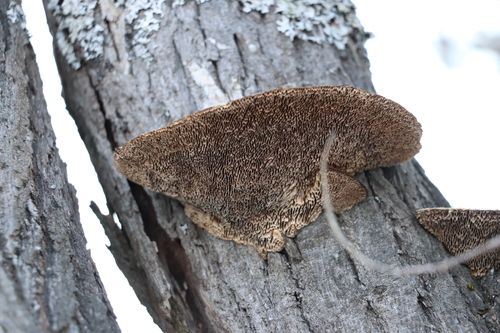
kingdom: Fungi
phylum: Basidiomycota
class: Agaricomycetes
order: Polyporales
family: Polyporaceae
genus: Daedaleopsis
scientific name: Daedaleopsis confragosa
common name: Blushing bracket
